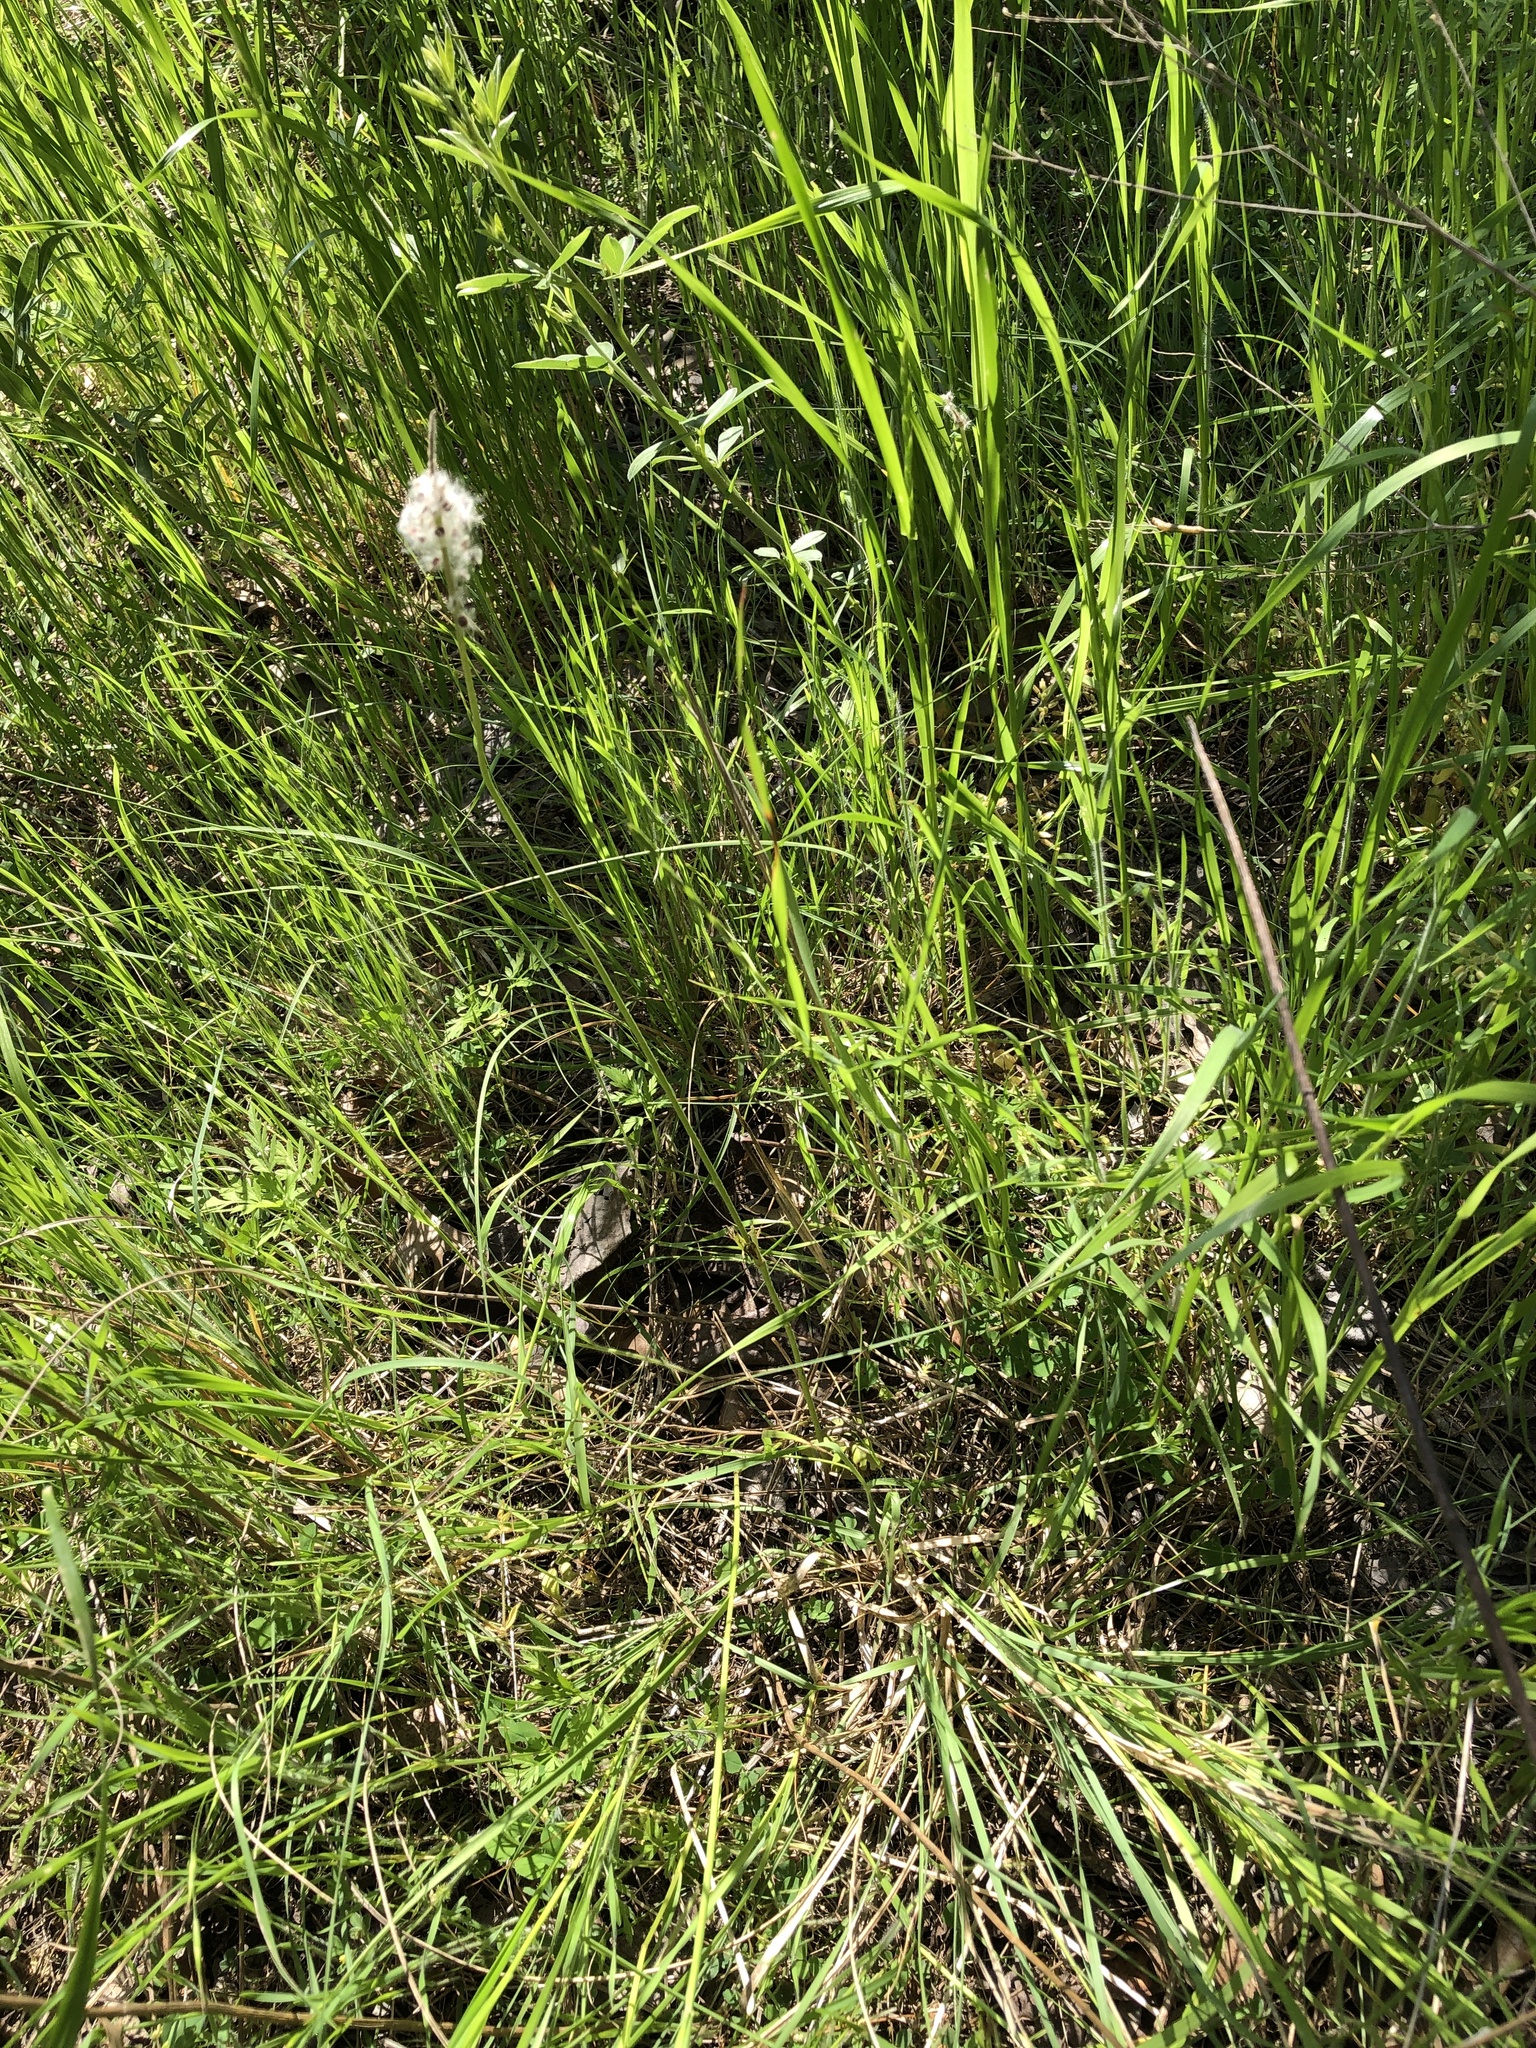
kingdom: Plantae
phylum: Tracheophyta
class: Magnoliopsida
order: Ranunculales
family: Ranunculaceae
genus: Anemone
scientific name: Anemone berlandieri
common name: Ten-petal anemone
